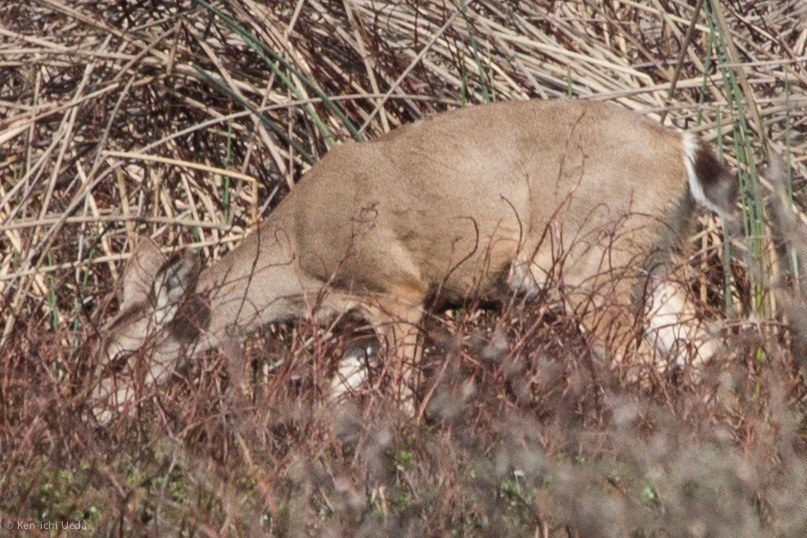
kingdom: Animalia
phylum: Chordata
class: Mammalia
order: Artiodactyla
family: Cervidae
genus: Odocoileus
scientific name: Odocoileus hemionus
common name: Mule deer
